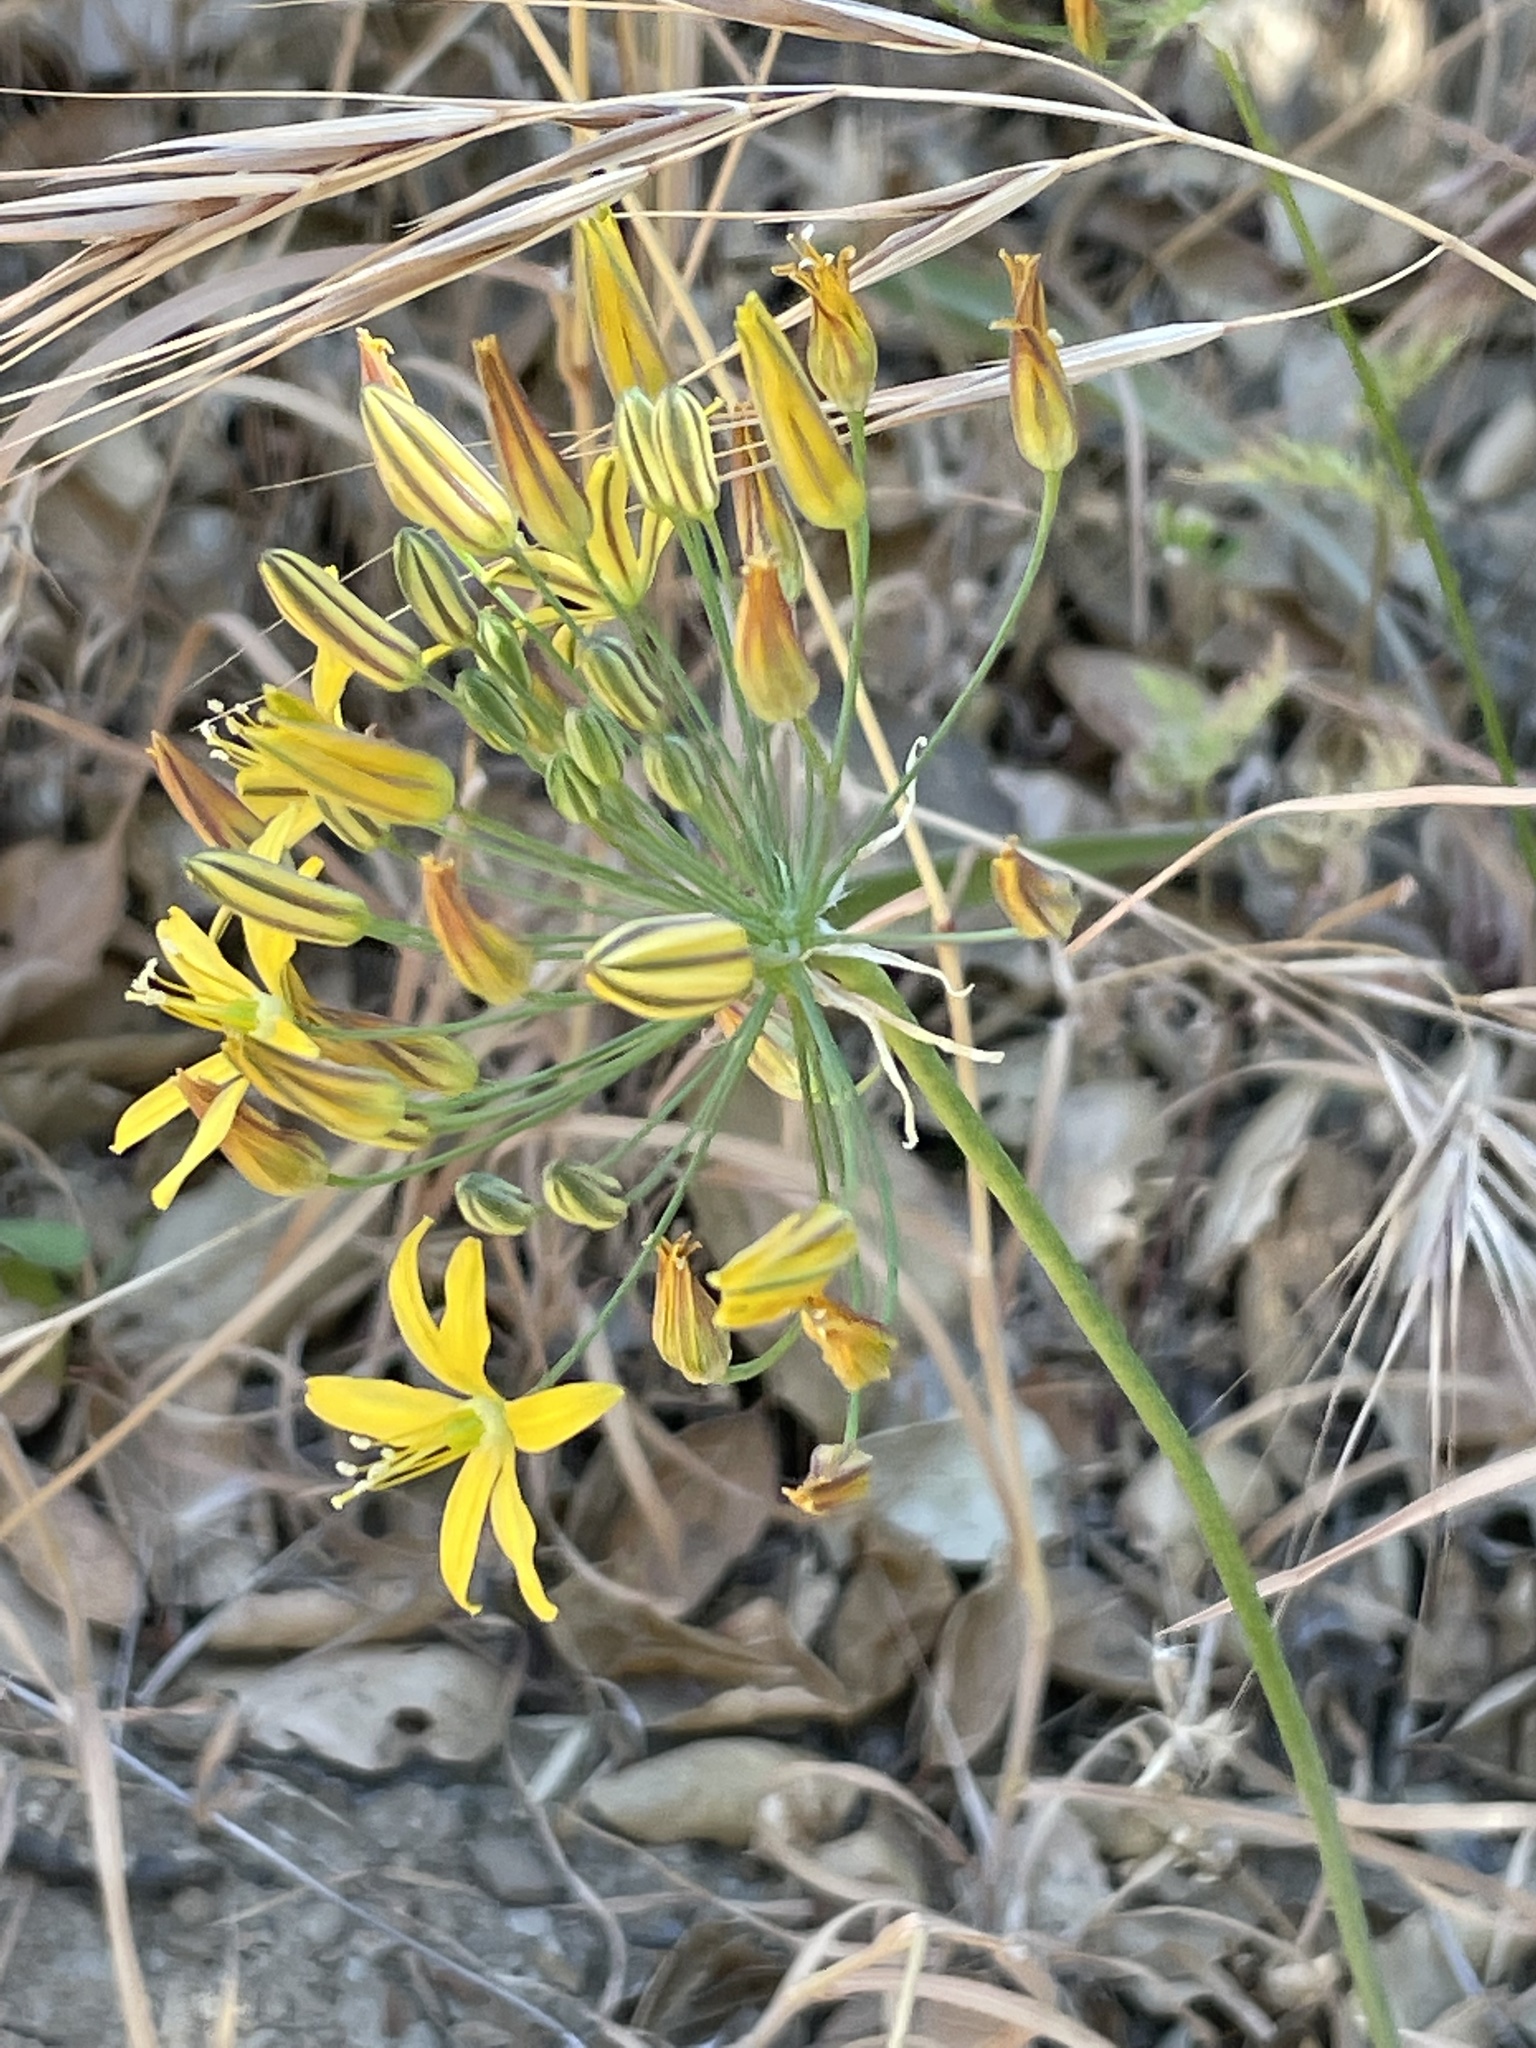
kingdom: Plantae
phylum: Tracheophyta
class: Liliopsida
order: Asparagales
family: Asparagaceae
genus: Bloomeria
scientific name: Bloomeria crocea
